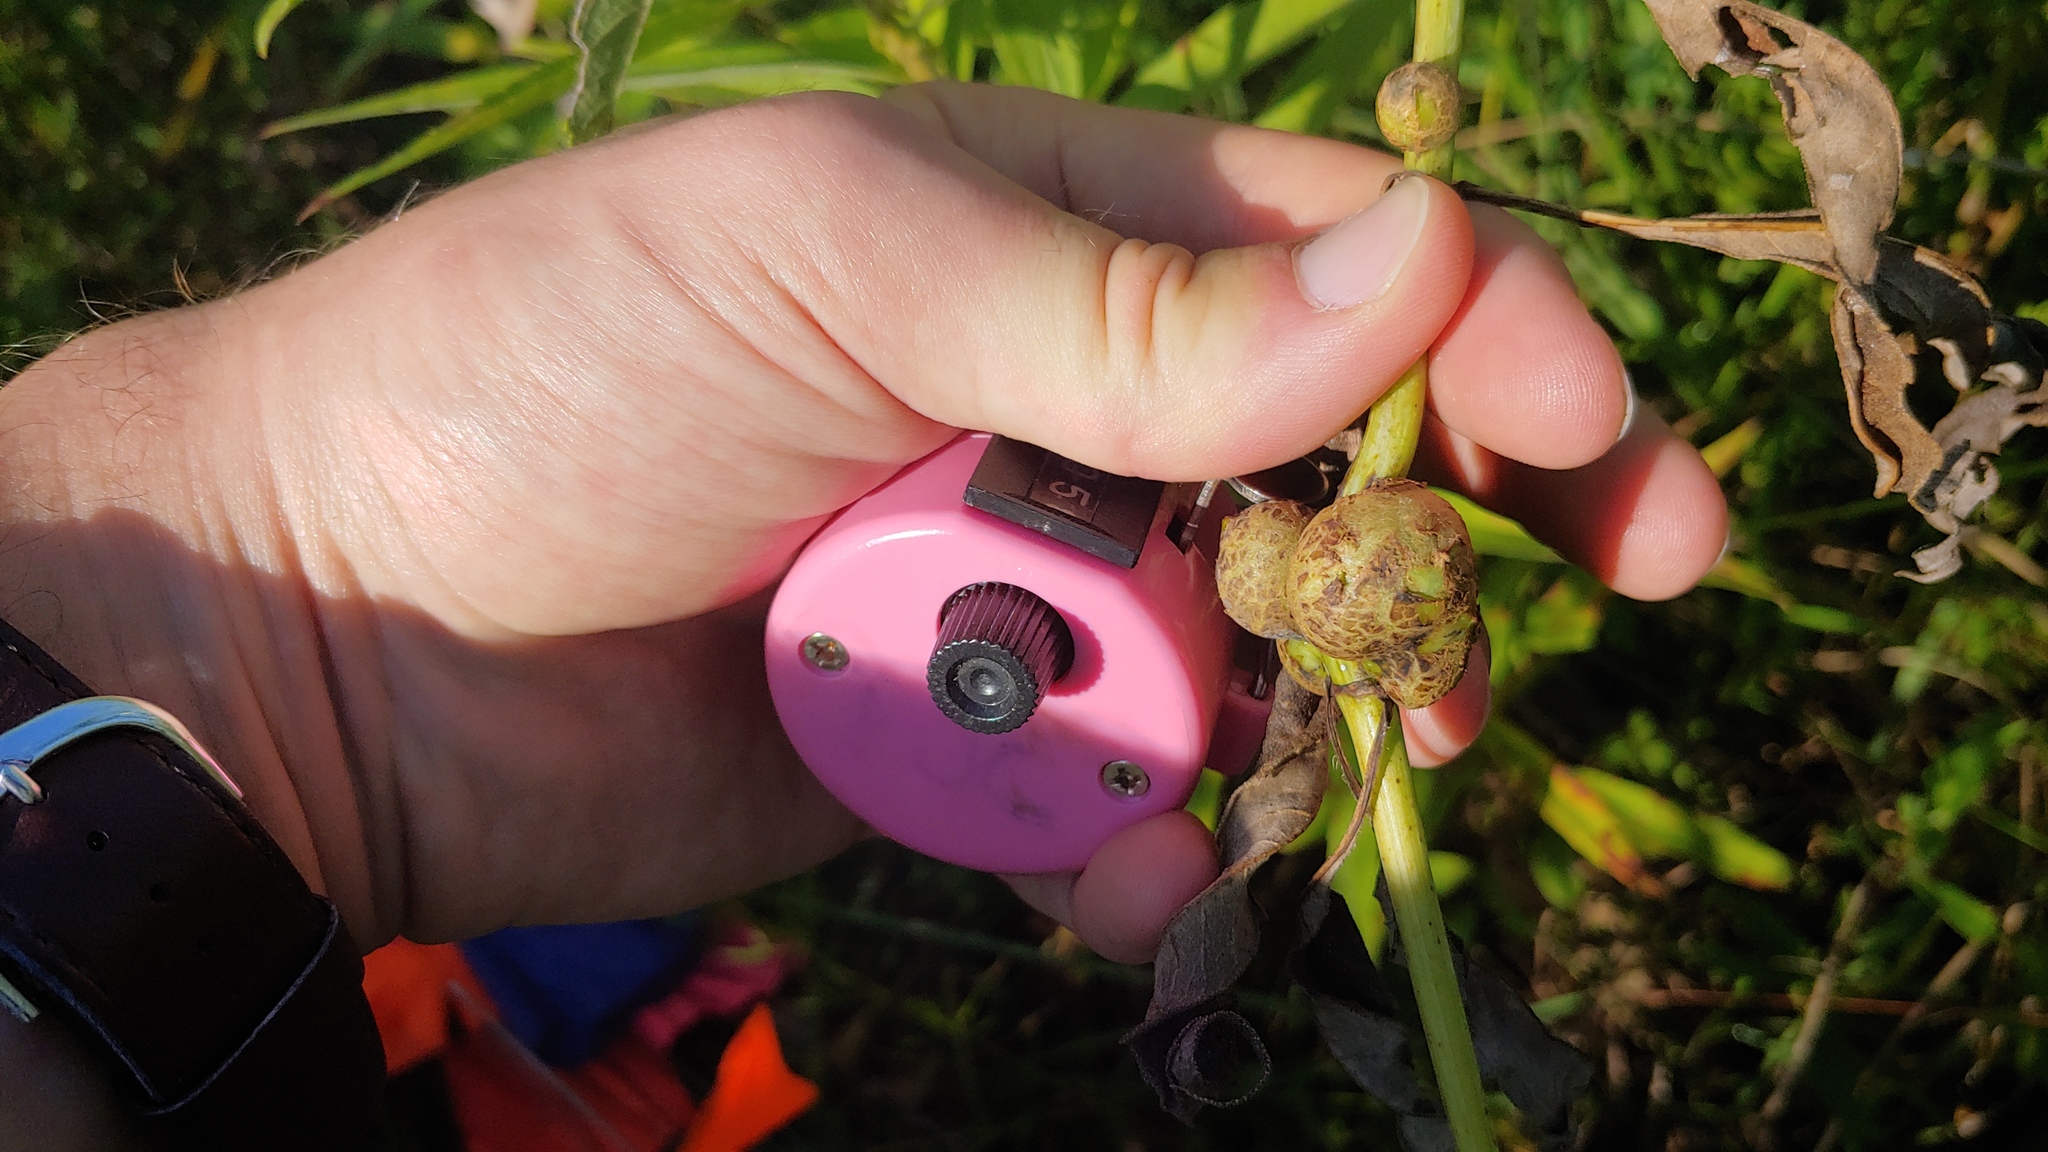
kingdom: Animalia
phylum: Arthropoda
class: Insecta
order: Diptera
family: Cecidomyiidae
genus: Asphondylia
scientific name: Asphondylia helianthiglobulus
